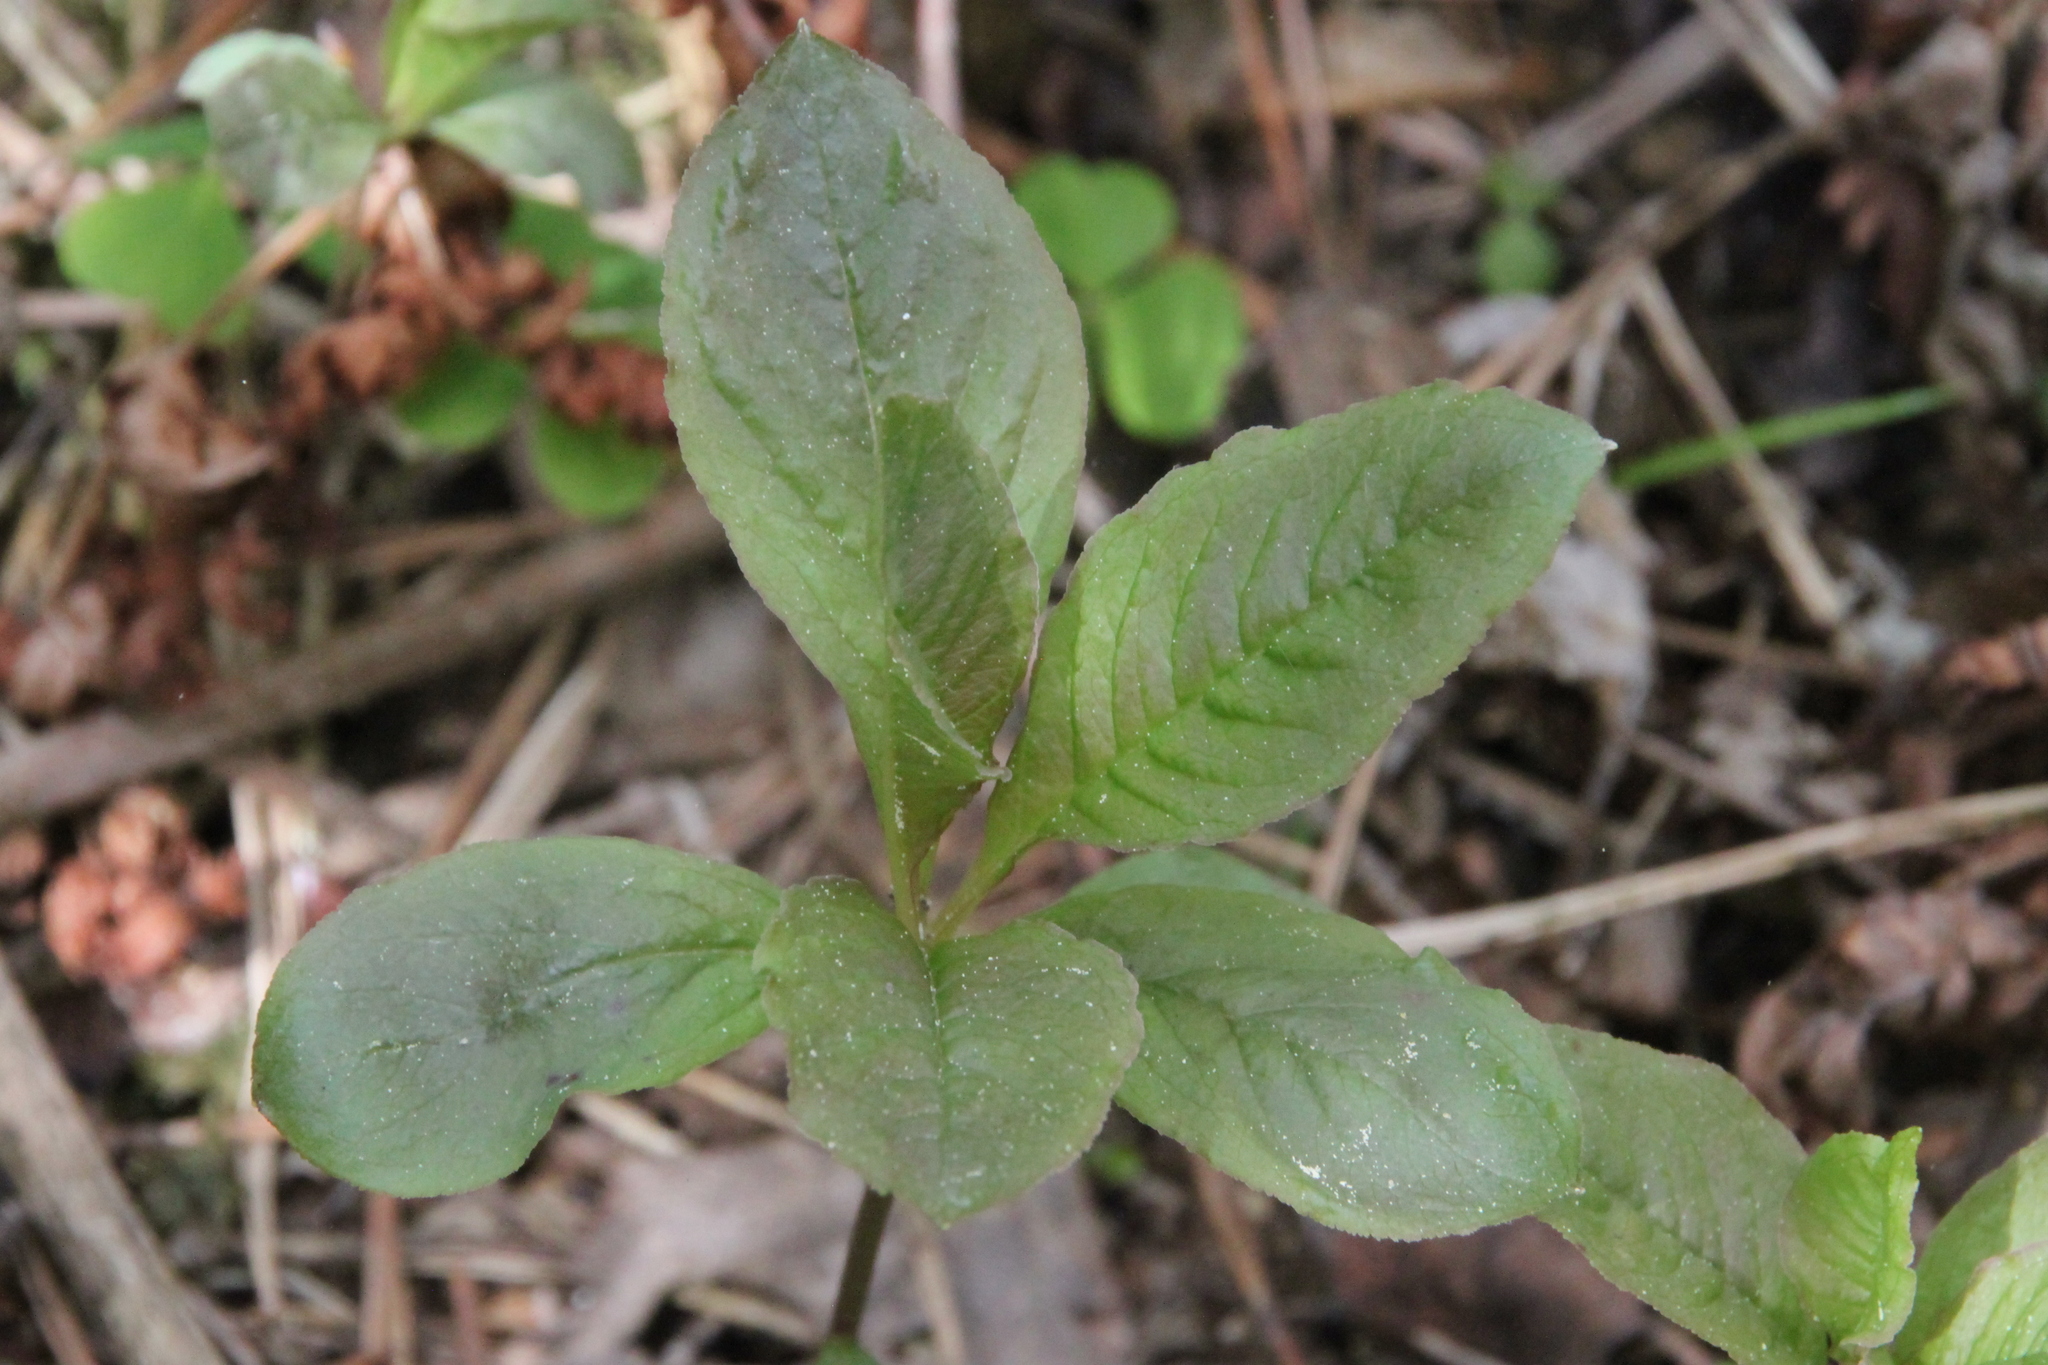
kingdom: Plantae
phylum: Tracheophyta
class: Magnoliopsida
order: Ericales
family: Primulaceae
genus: Lysimachia
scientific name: Lysimachia europaea
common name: Arctic starflower
